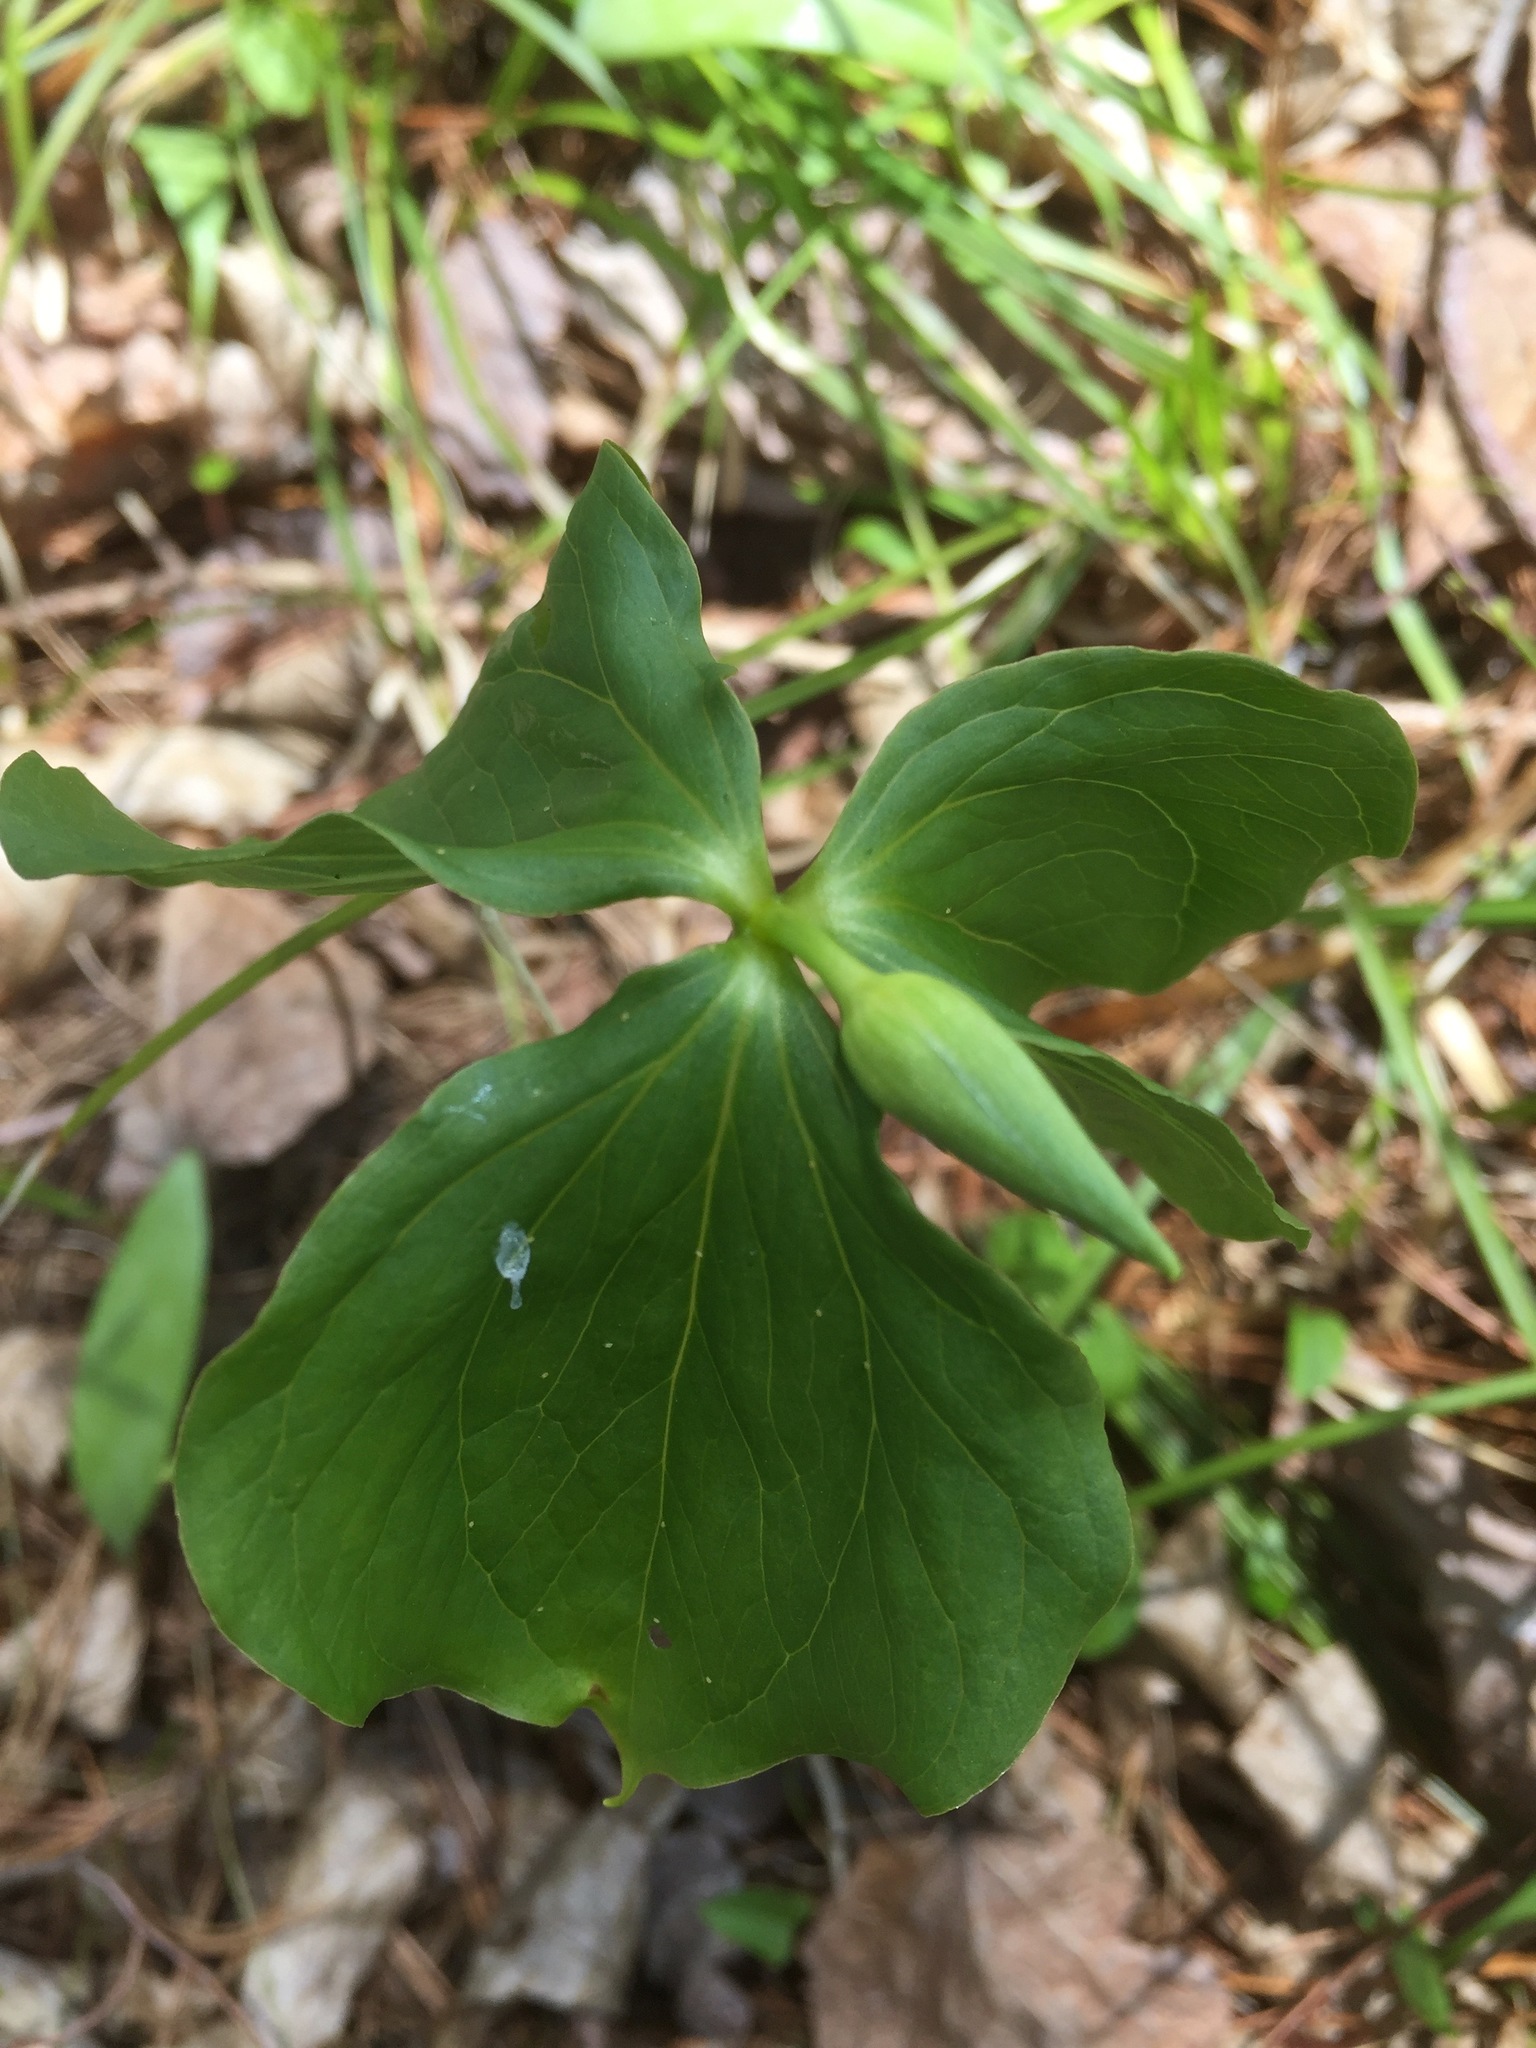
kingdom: Plantae
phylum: Tracheophyta
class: Liliopsida
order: Liliales
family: Melanthiaceae
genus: Trillium
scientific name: Trillium cernuum
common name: Nodding trillium
